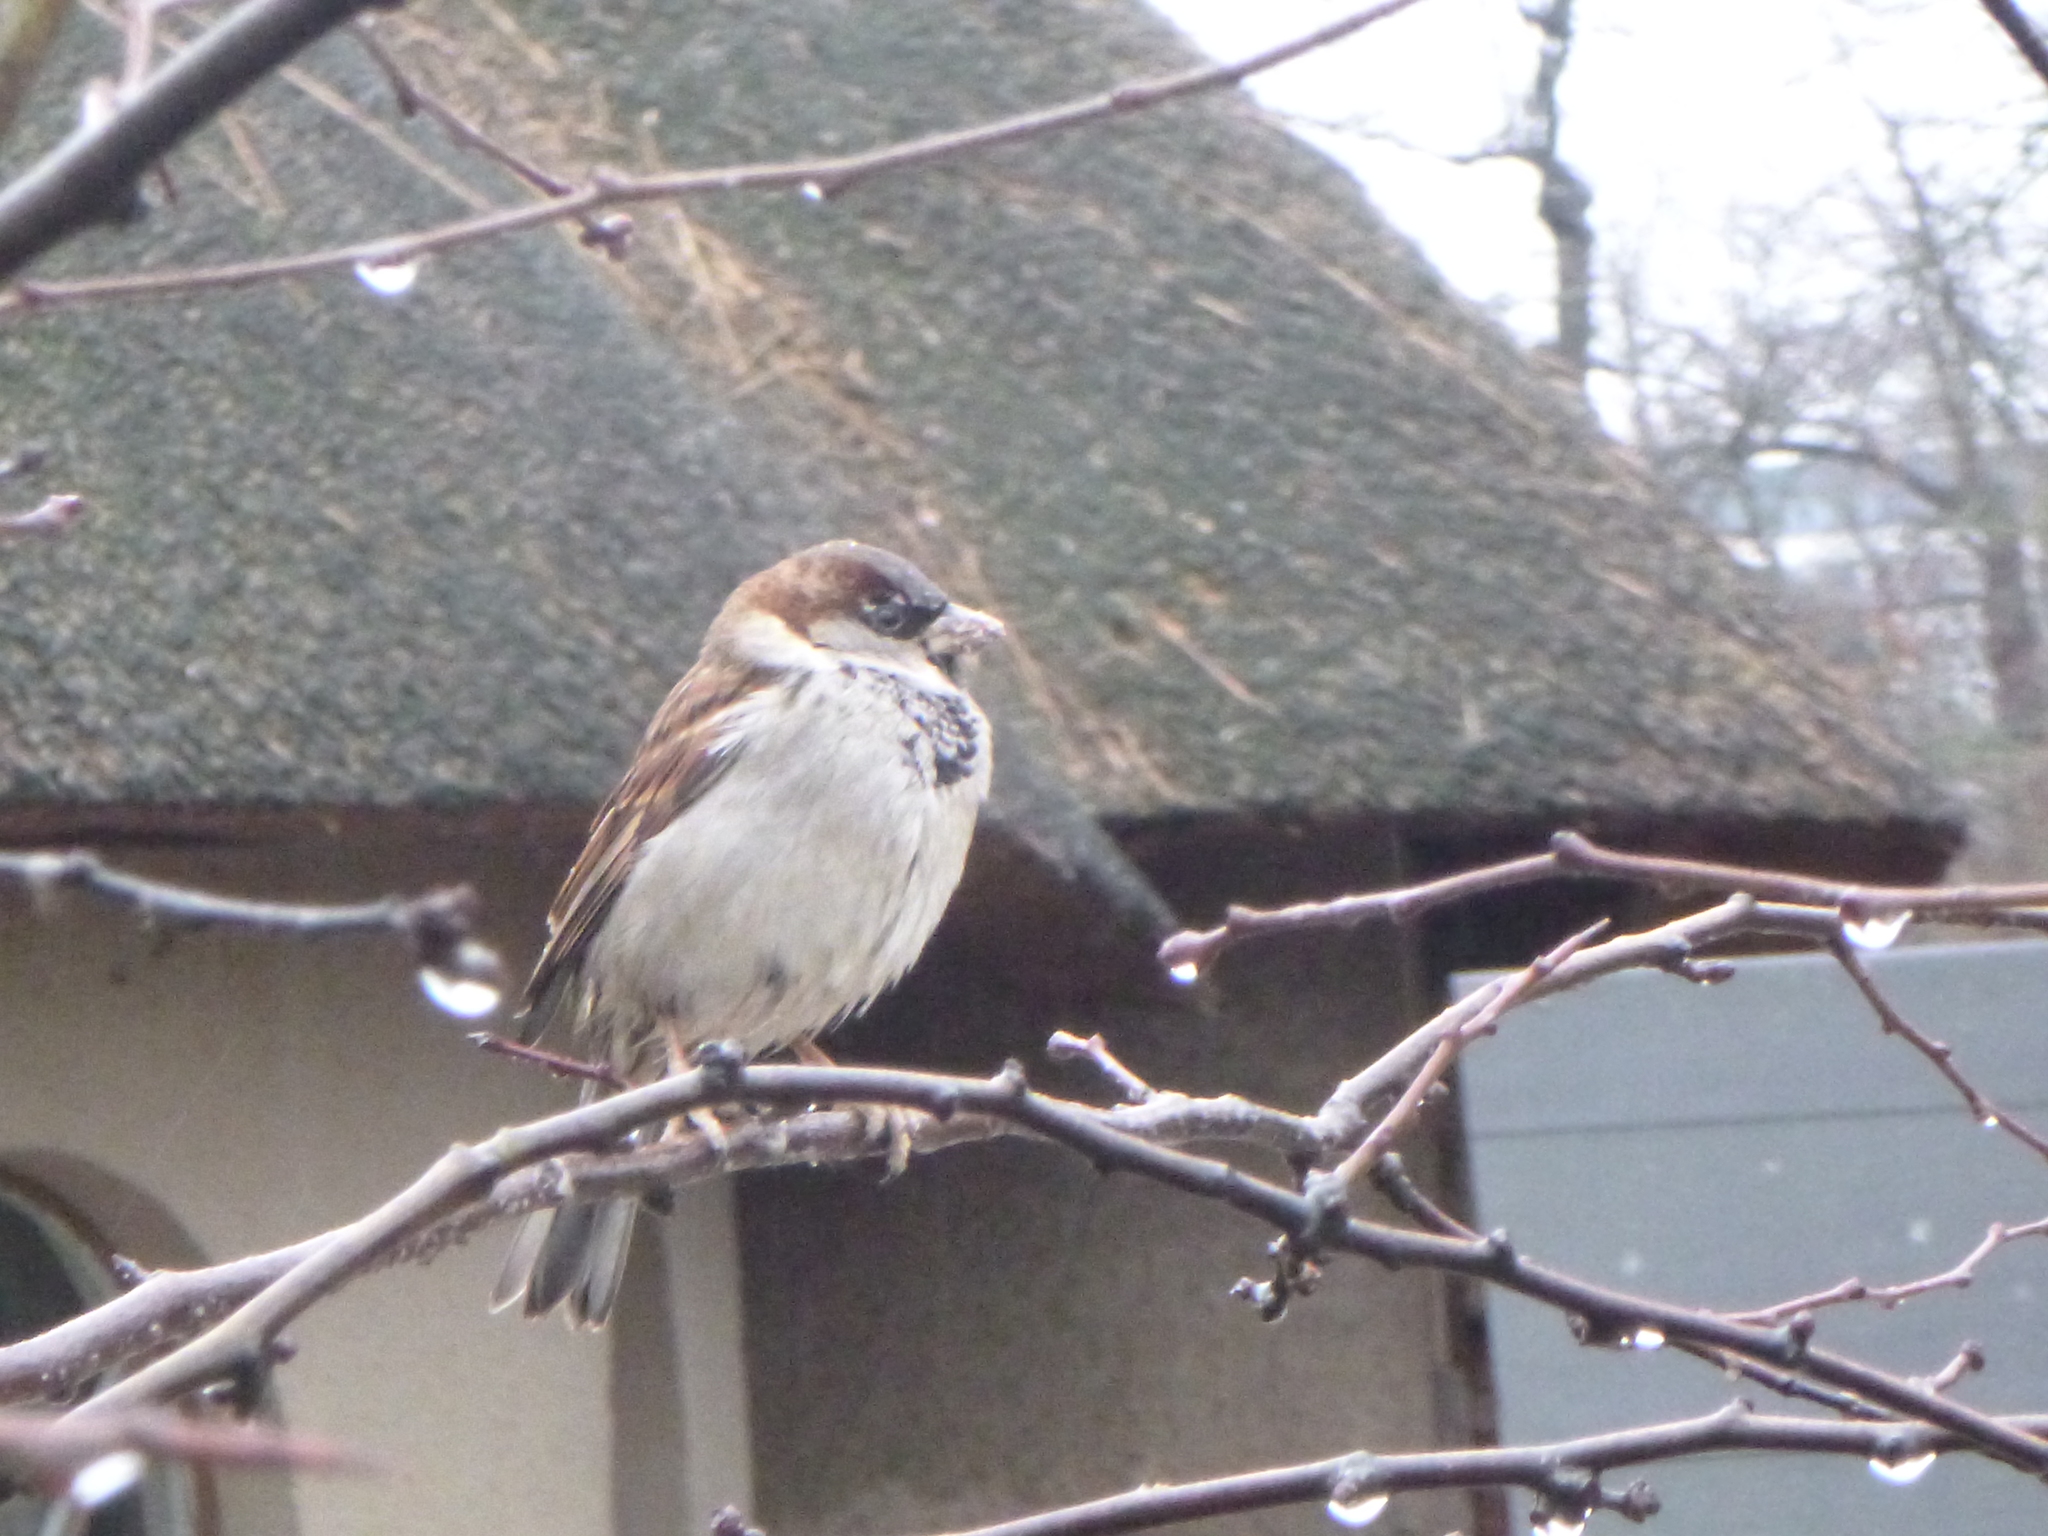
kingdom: Animalia
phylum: Chordata
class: Aves
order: Passeriformes
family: Passeridae
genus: Passer
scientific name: Passer domesticus
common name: House sparrow
